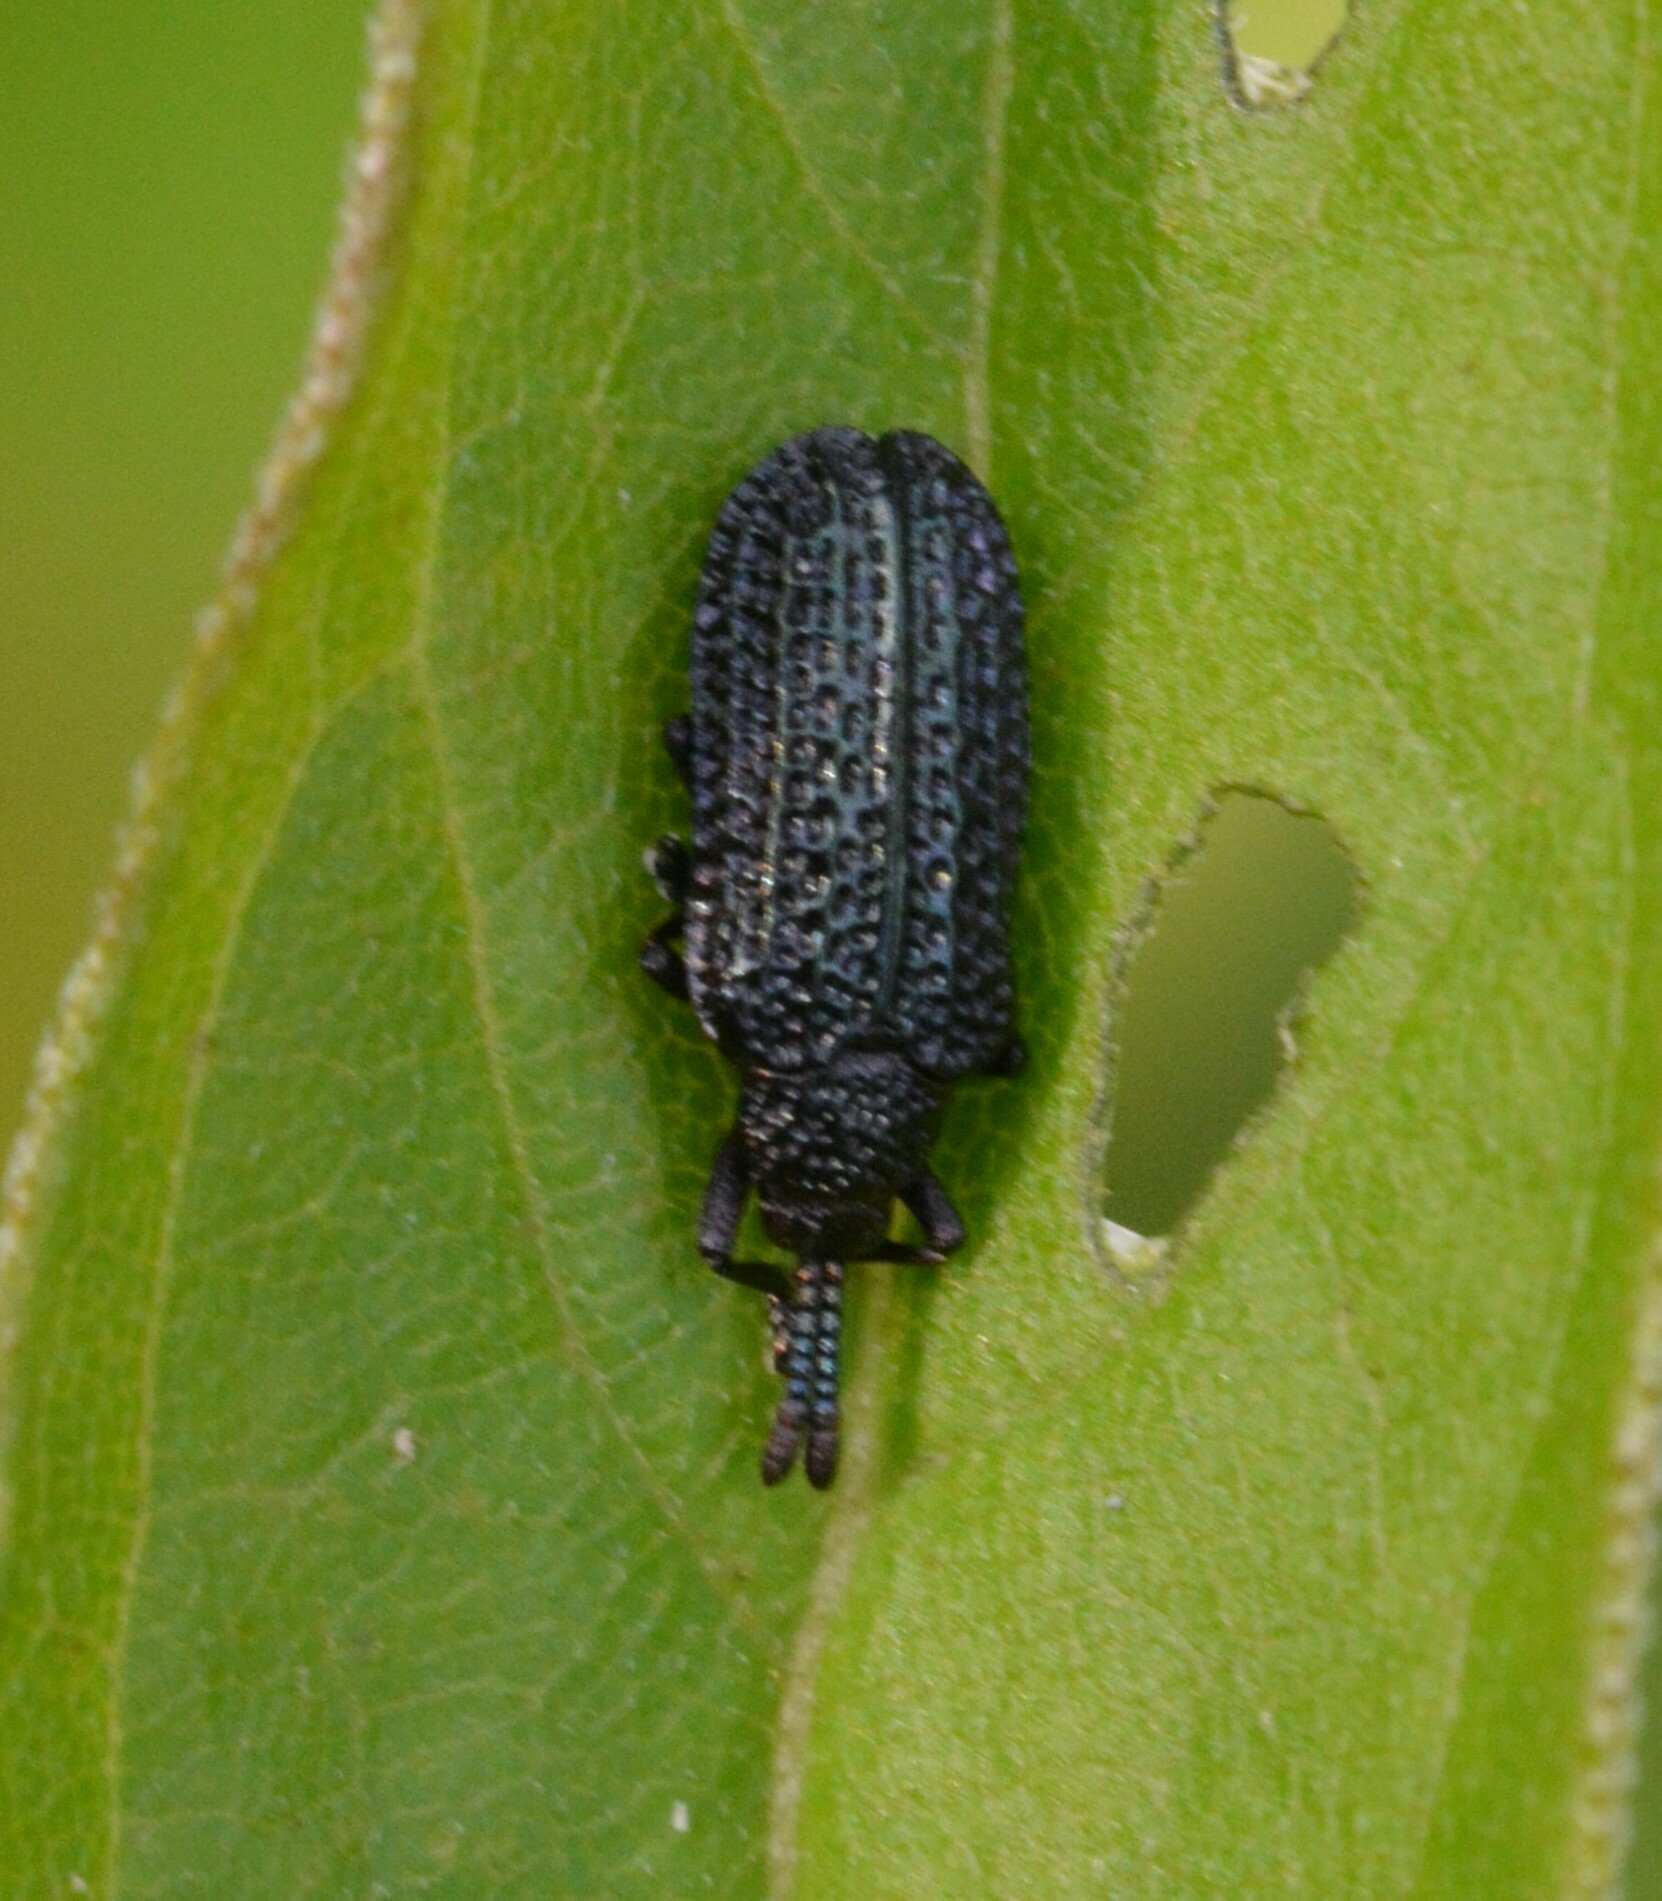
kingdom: Animalia
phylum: Arthropoda
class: Insecta
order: Coleoptera
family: Chrysomelidae
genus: Microrhopala
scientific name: Microrhopala excavata
